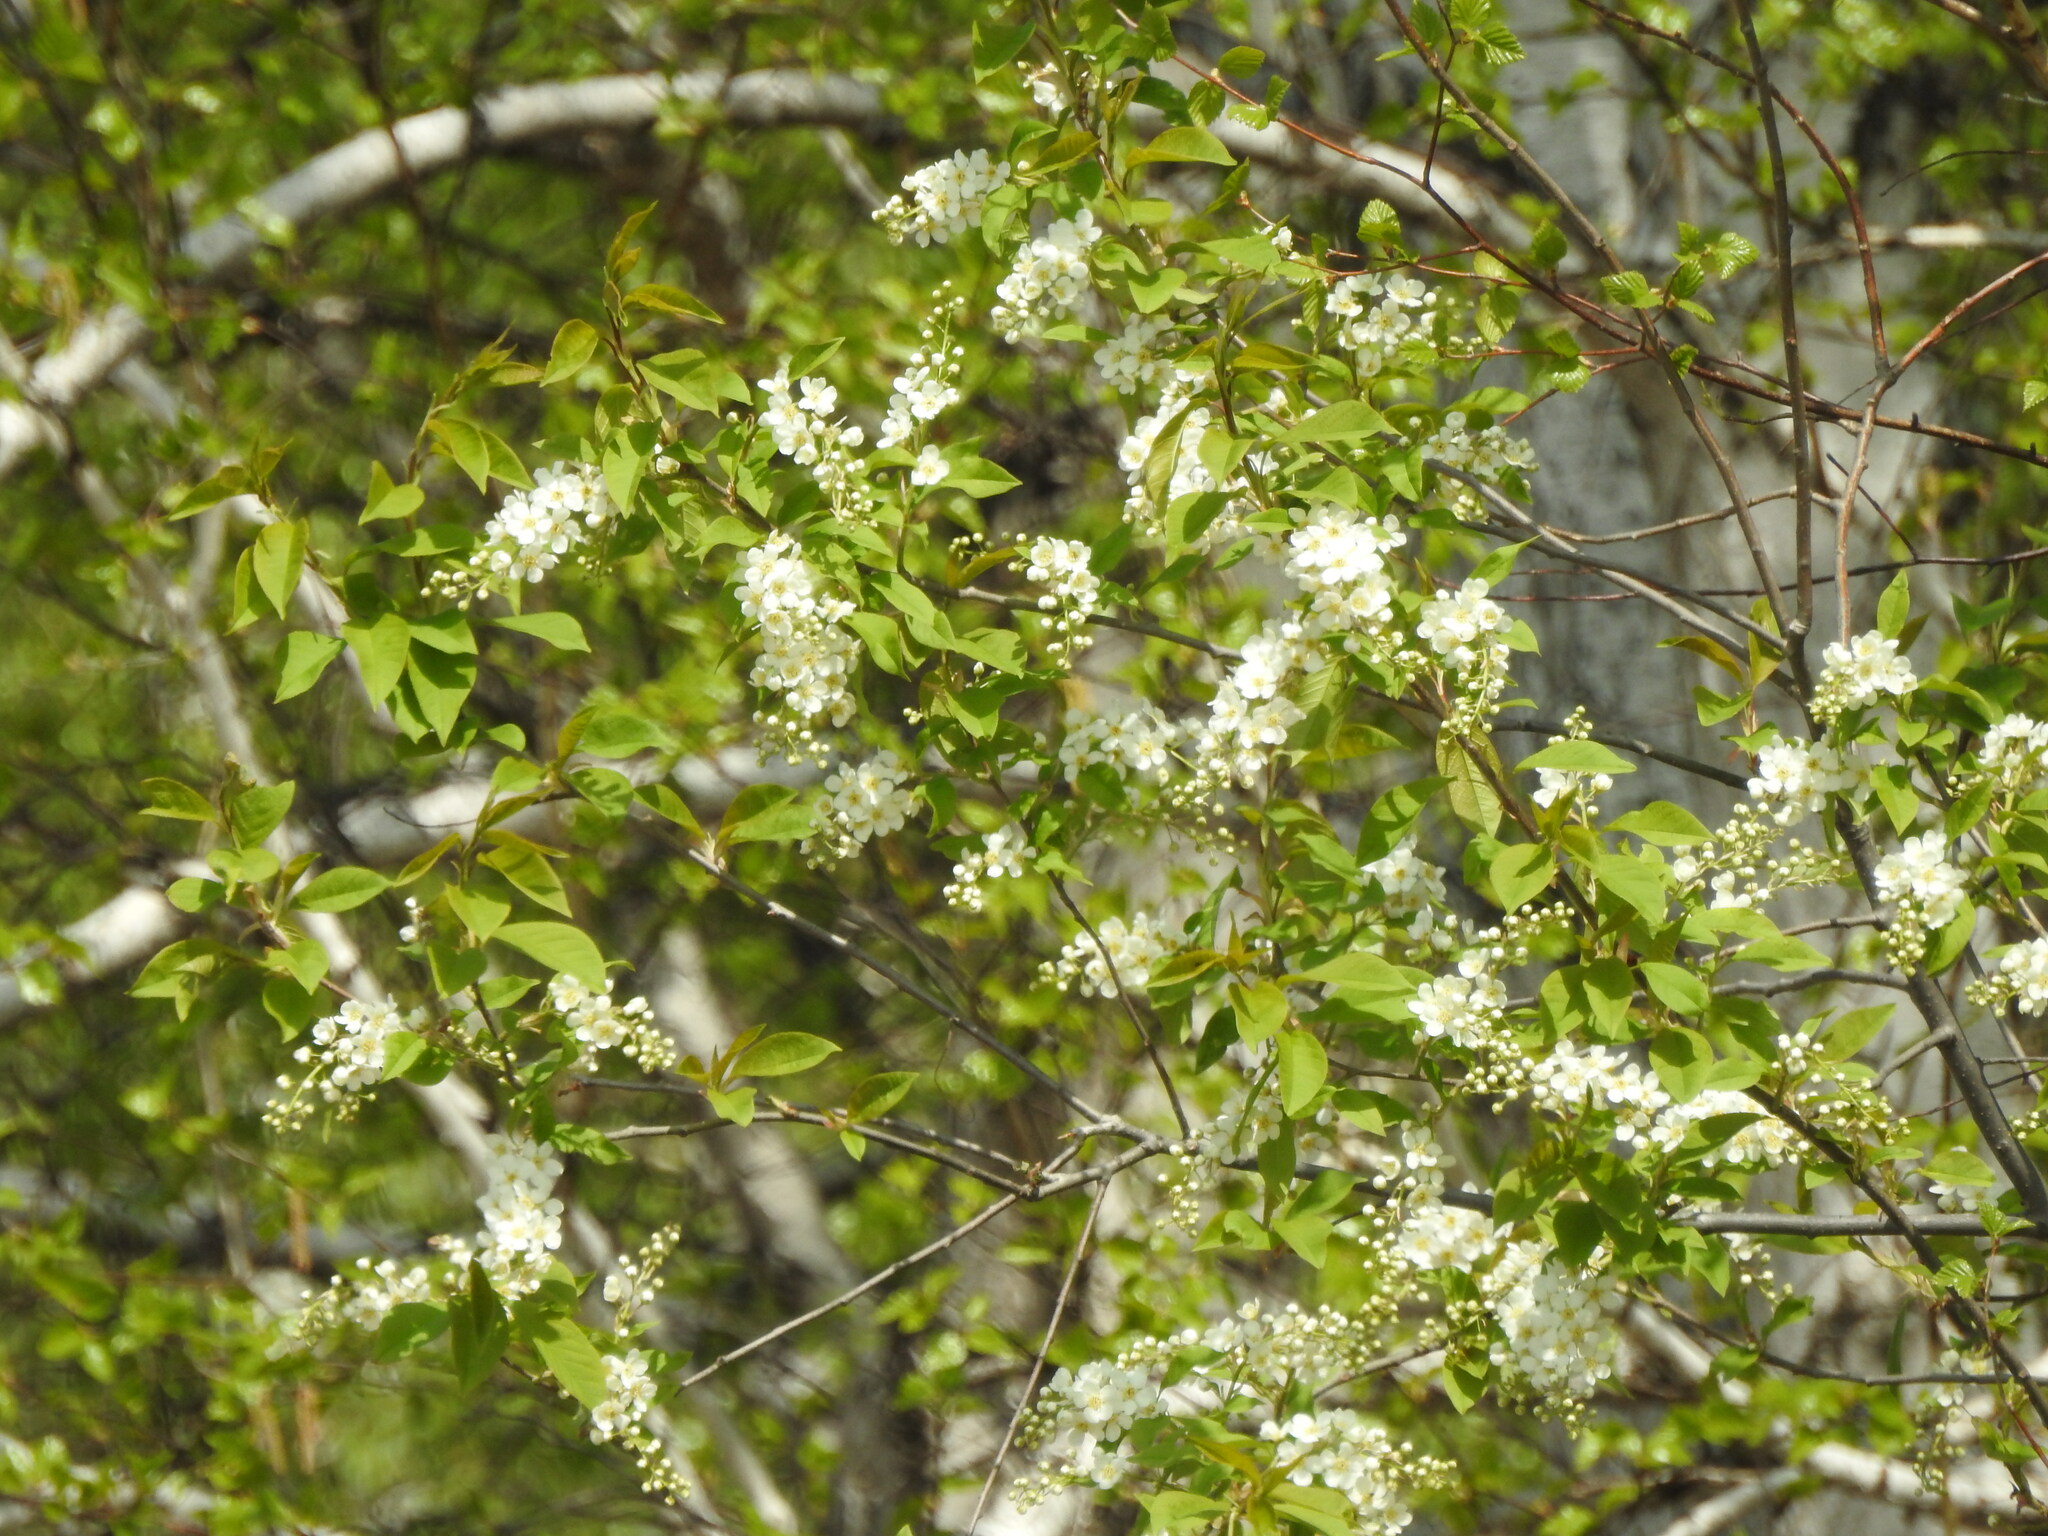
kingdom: Plantae
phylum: Tracheophyta
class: Magnoliopsida
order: Rosales
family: Rosaceae
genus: Prunus
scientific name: Prunus padus
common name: Bird cherry
